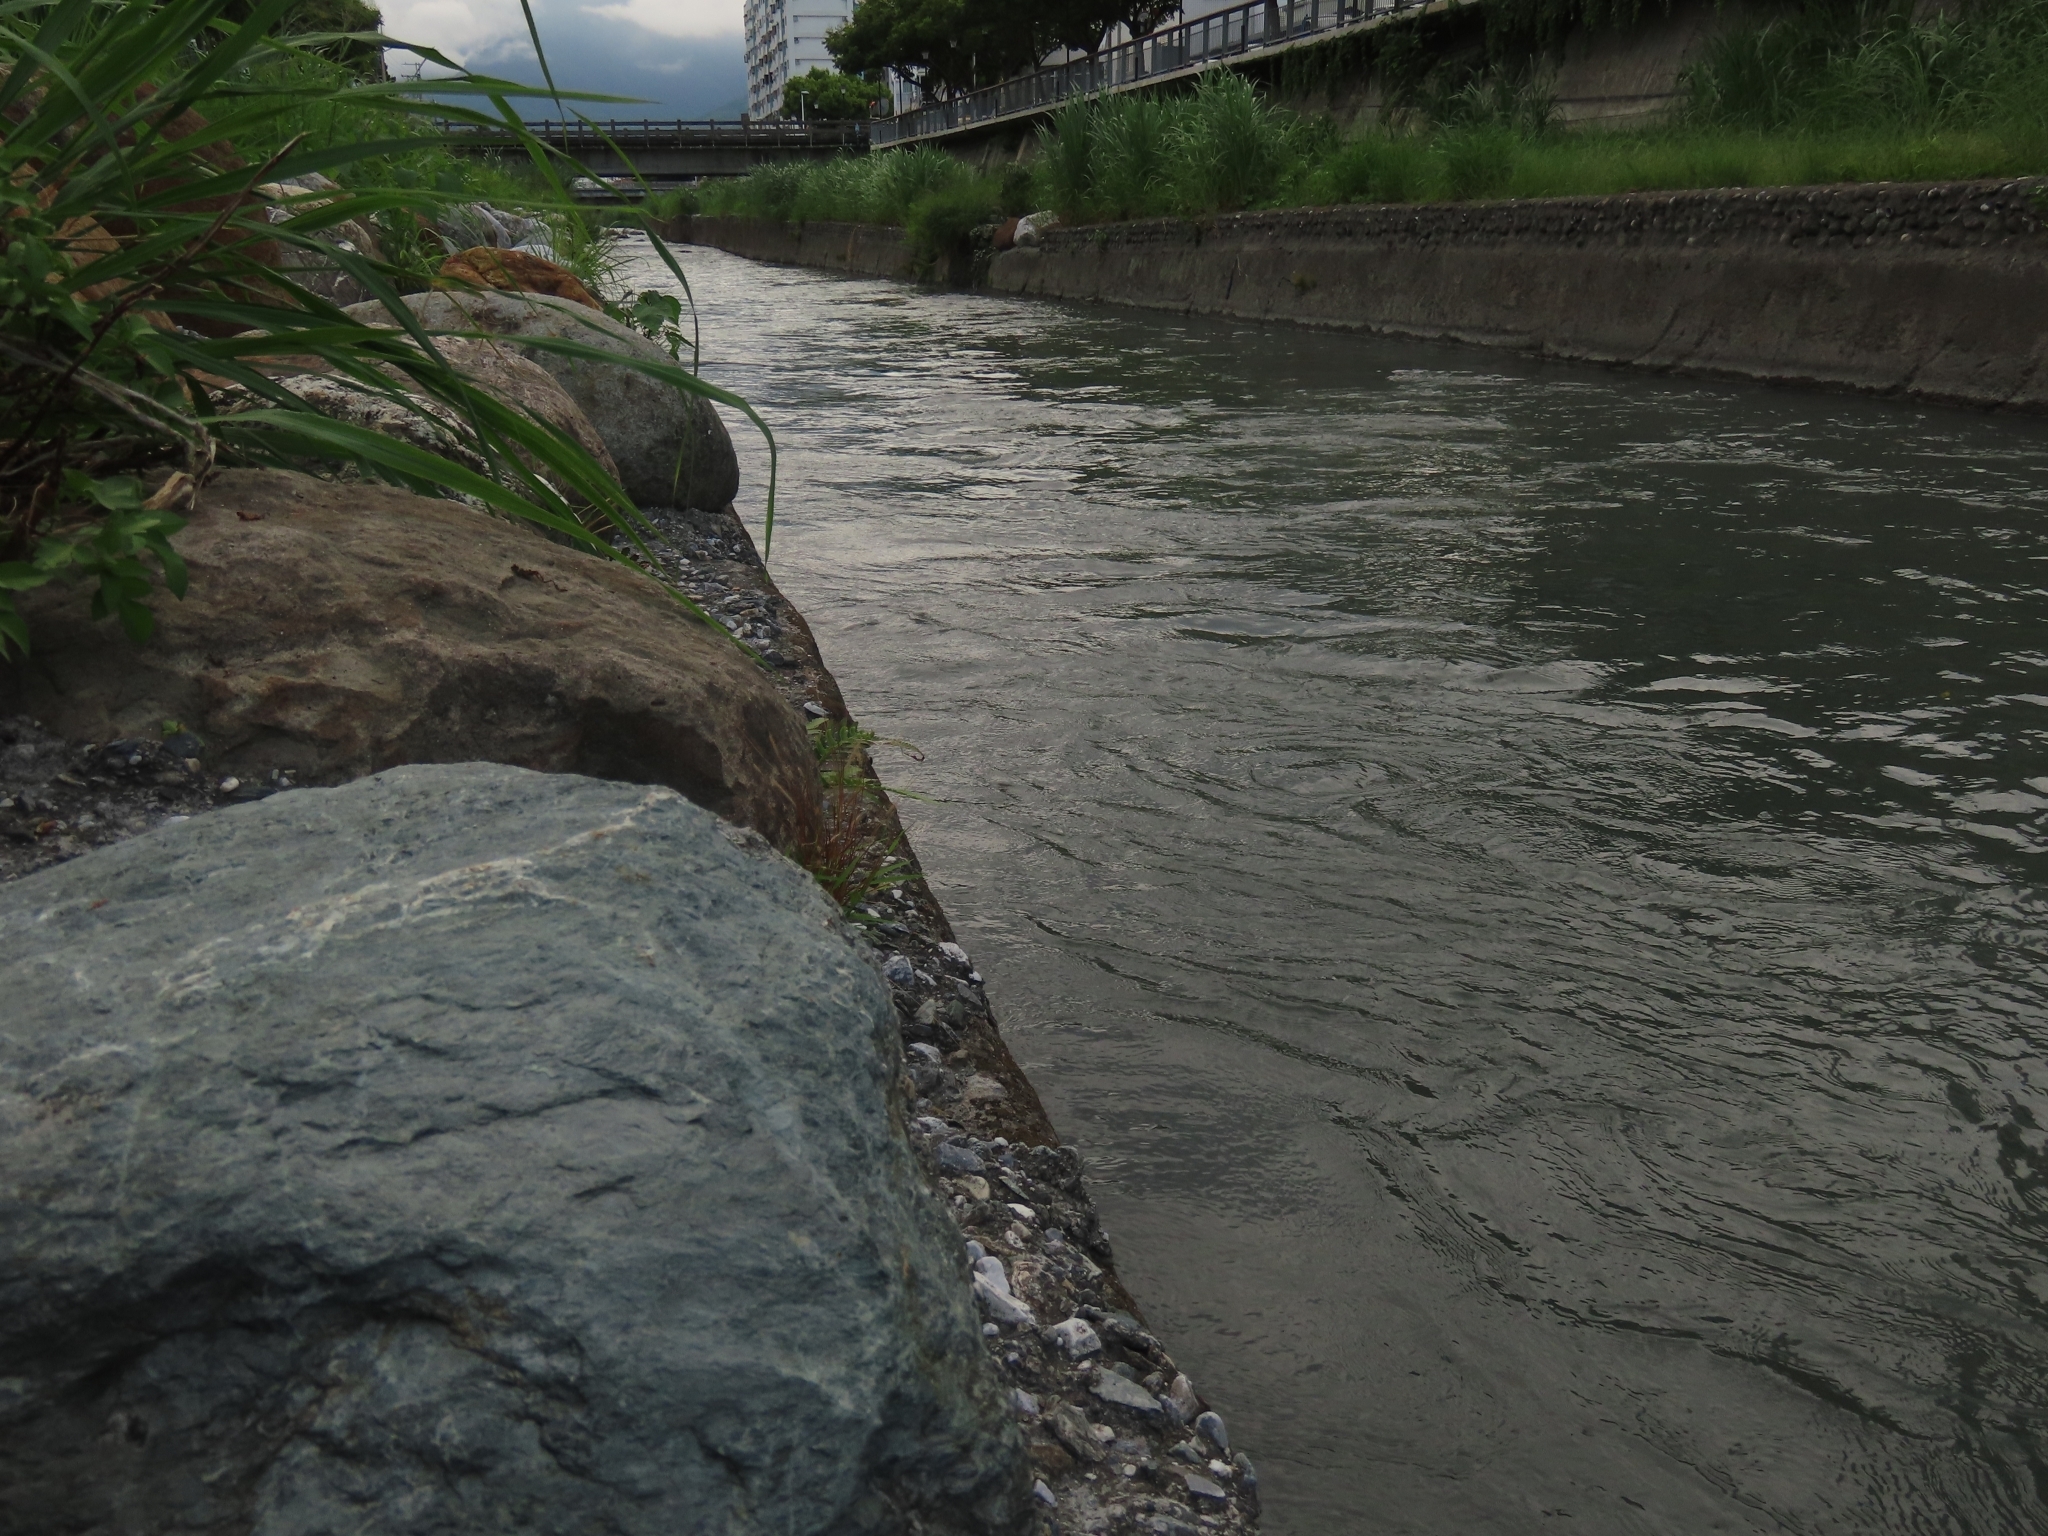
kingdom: Plantae
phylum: Tracheophyta
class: Liliopsida
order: Poales
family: Poaceae
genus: Pogonatherum
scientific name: Pogonatherum crinitum
